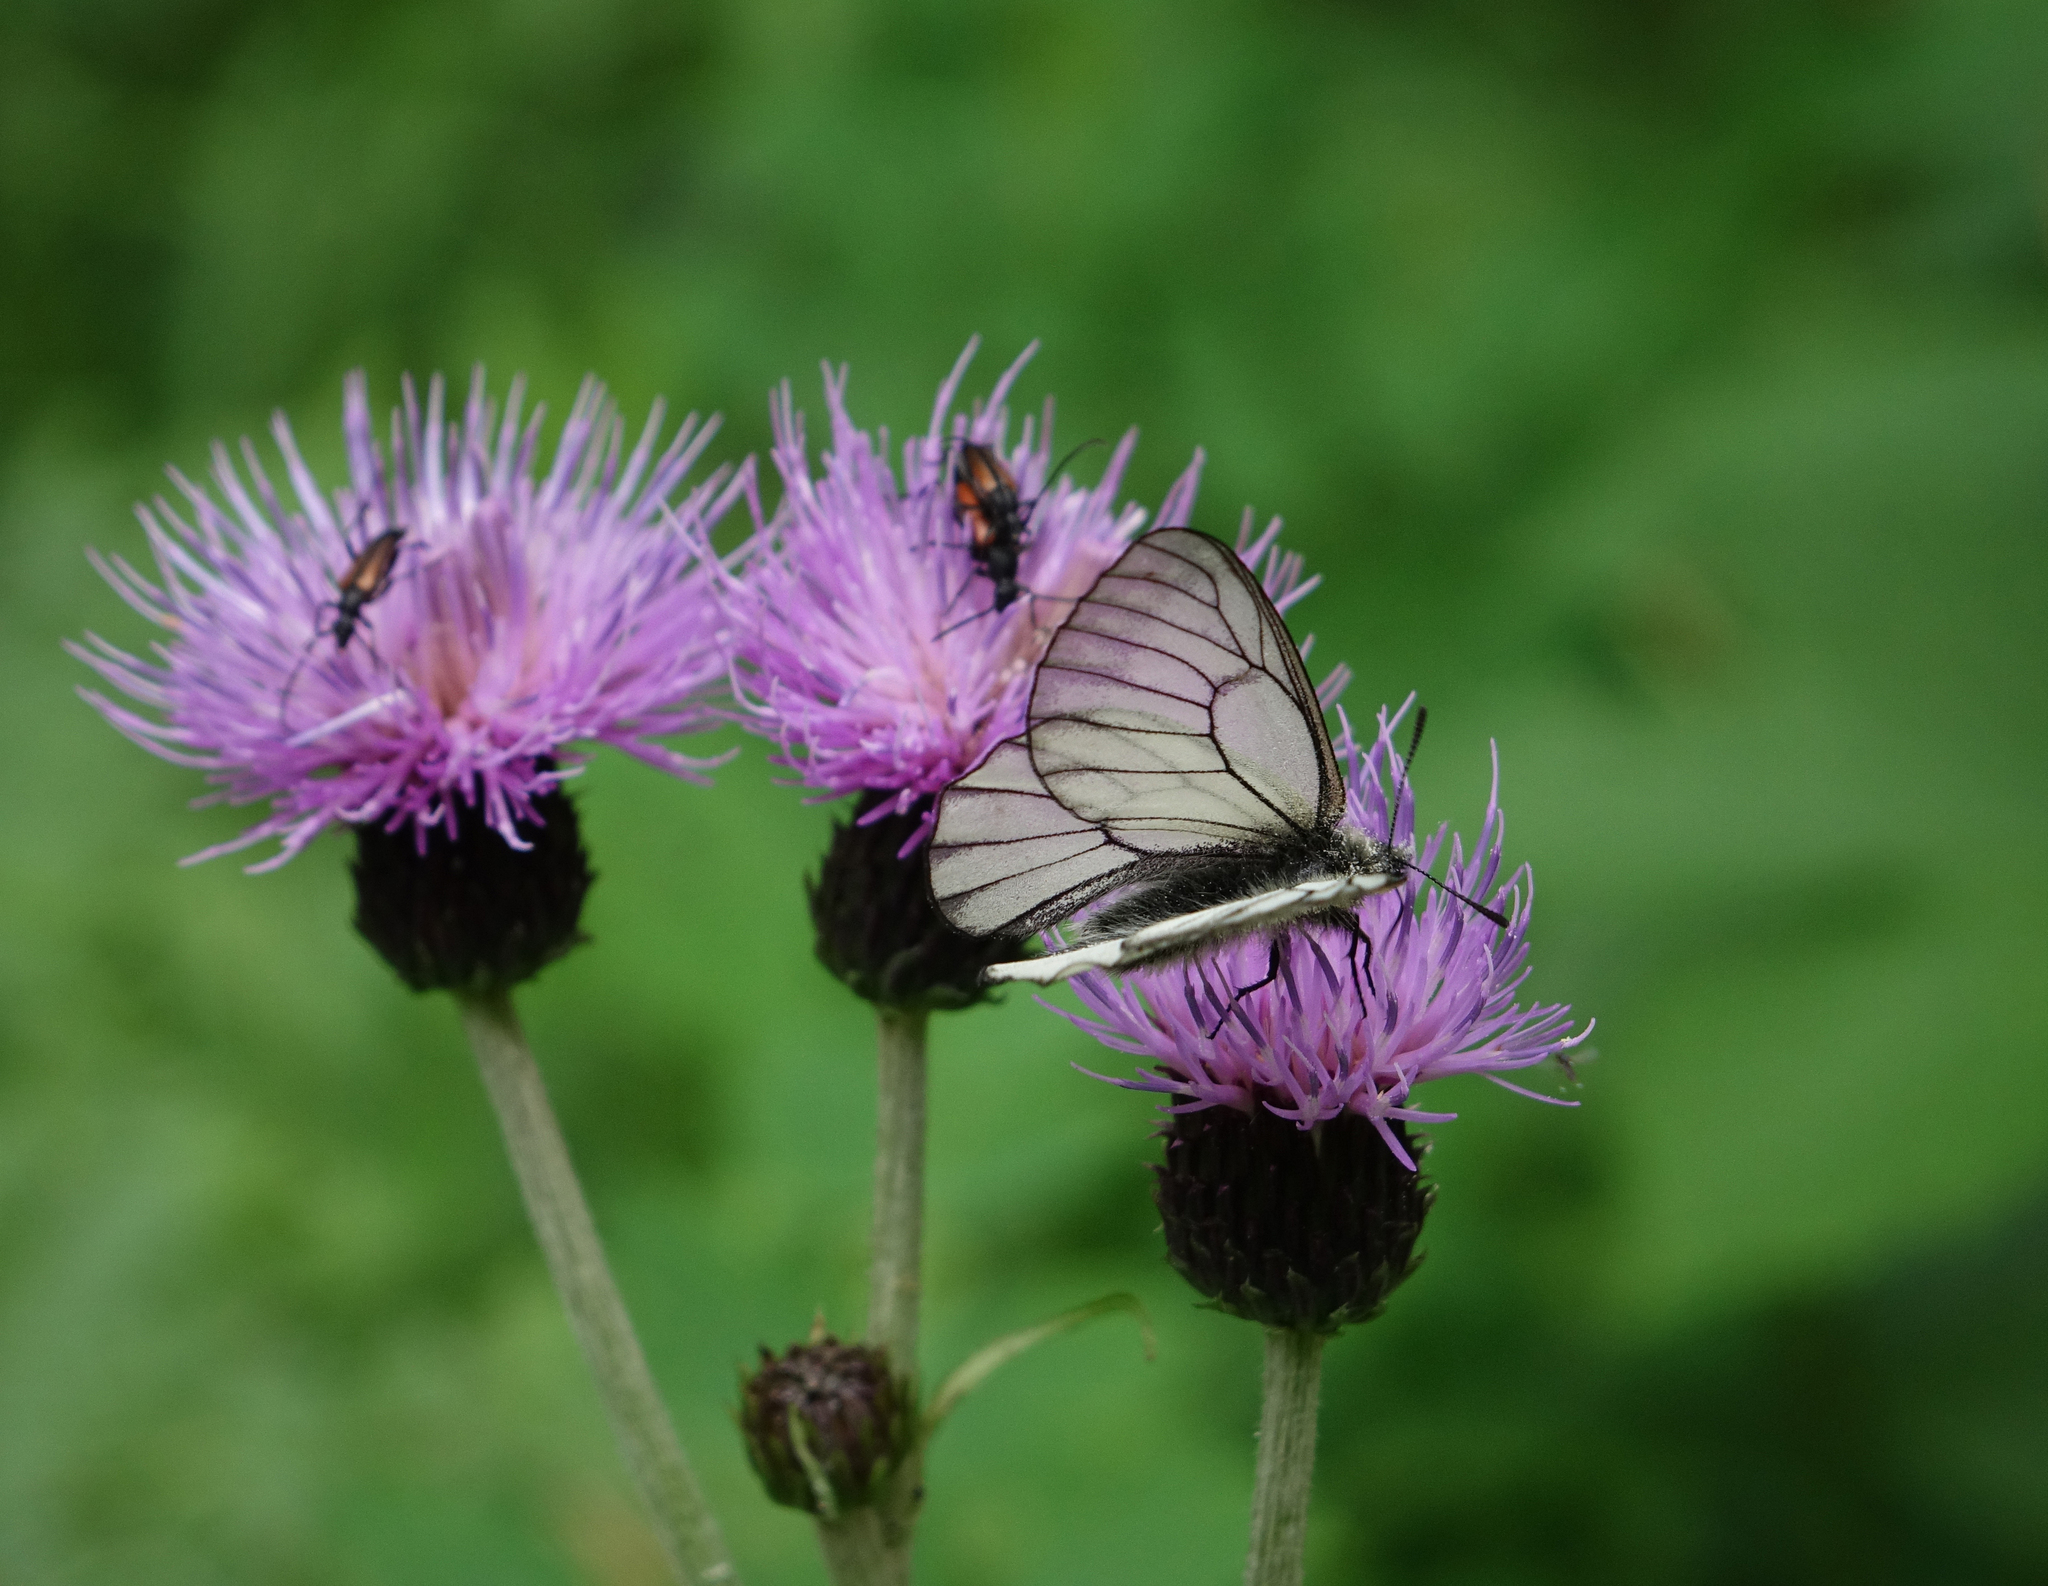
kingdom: Animalia
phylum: Arthropoda
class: Insecta
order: Lepidoptera
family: Papilionidae
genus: Parnassius
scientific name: Parnassius stubbendorfii
